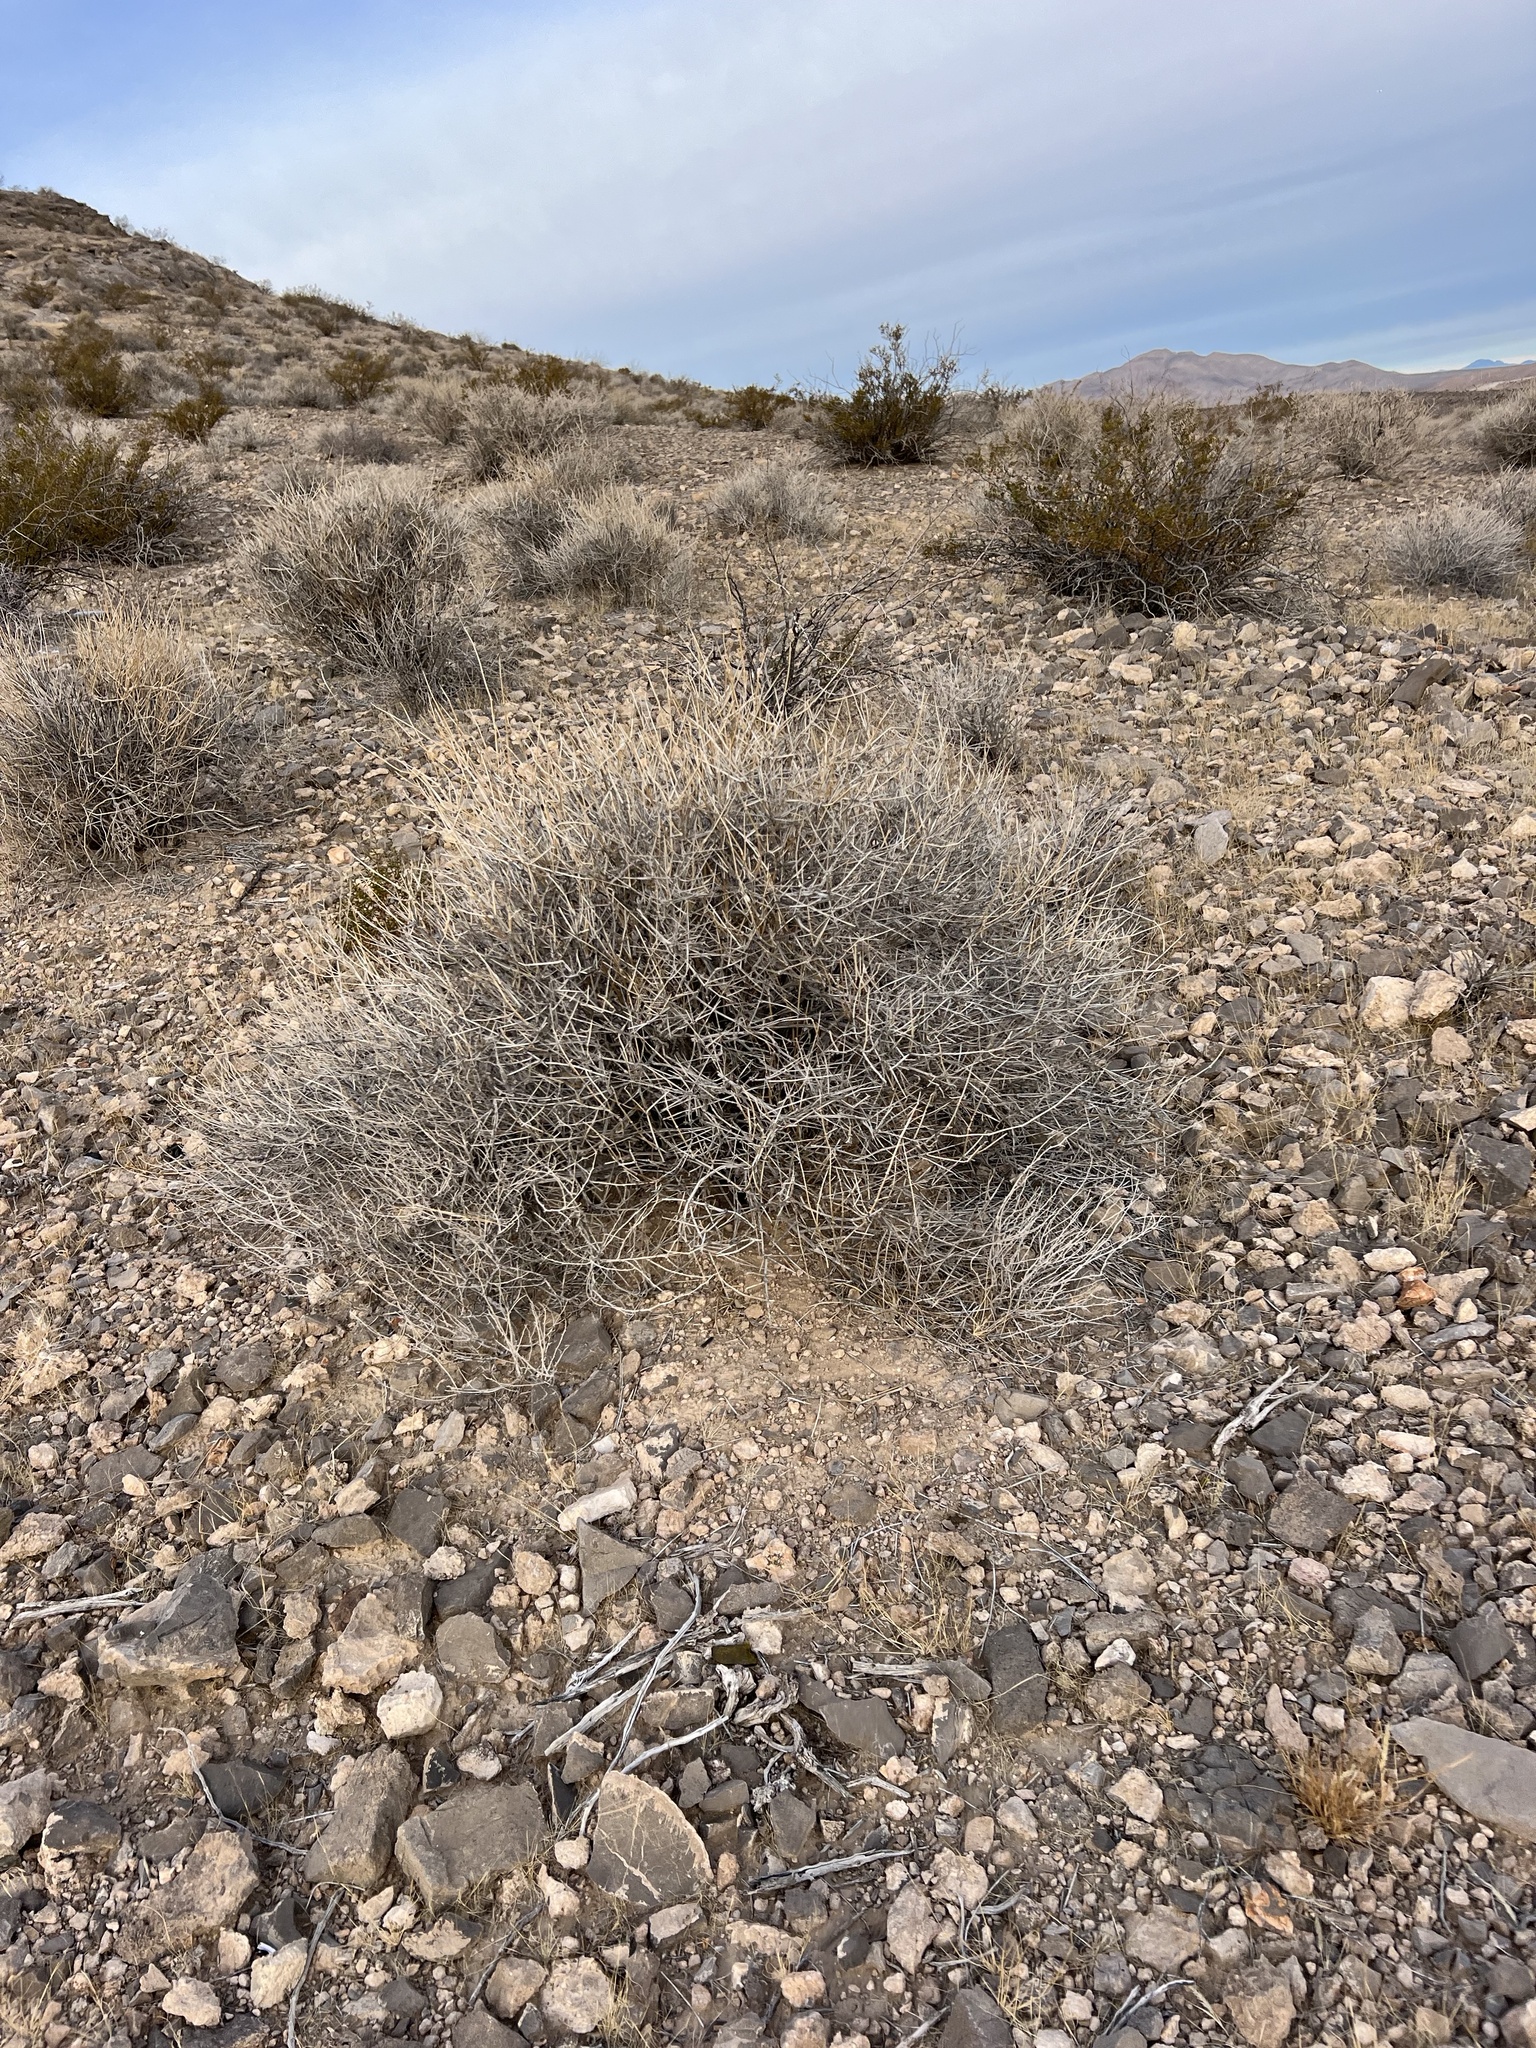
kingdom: Plantae
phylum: Tracheophyta
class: Gnetopsida
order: Ephedrales
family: Ephedraceae
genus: Ephedra
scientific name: Ephedra nevadensis
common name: Gray ephedra
